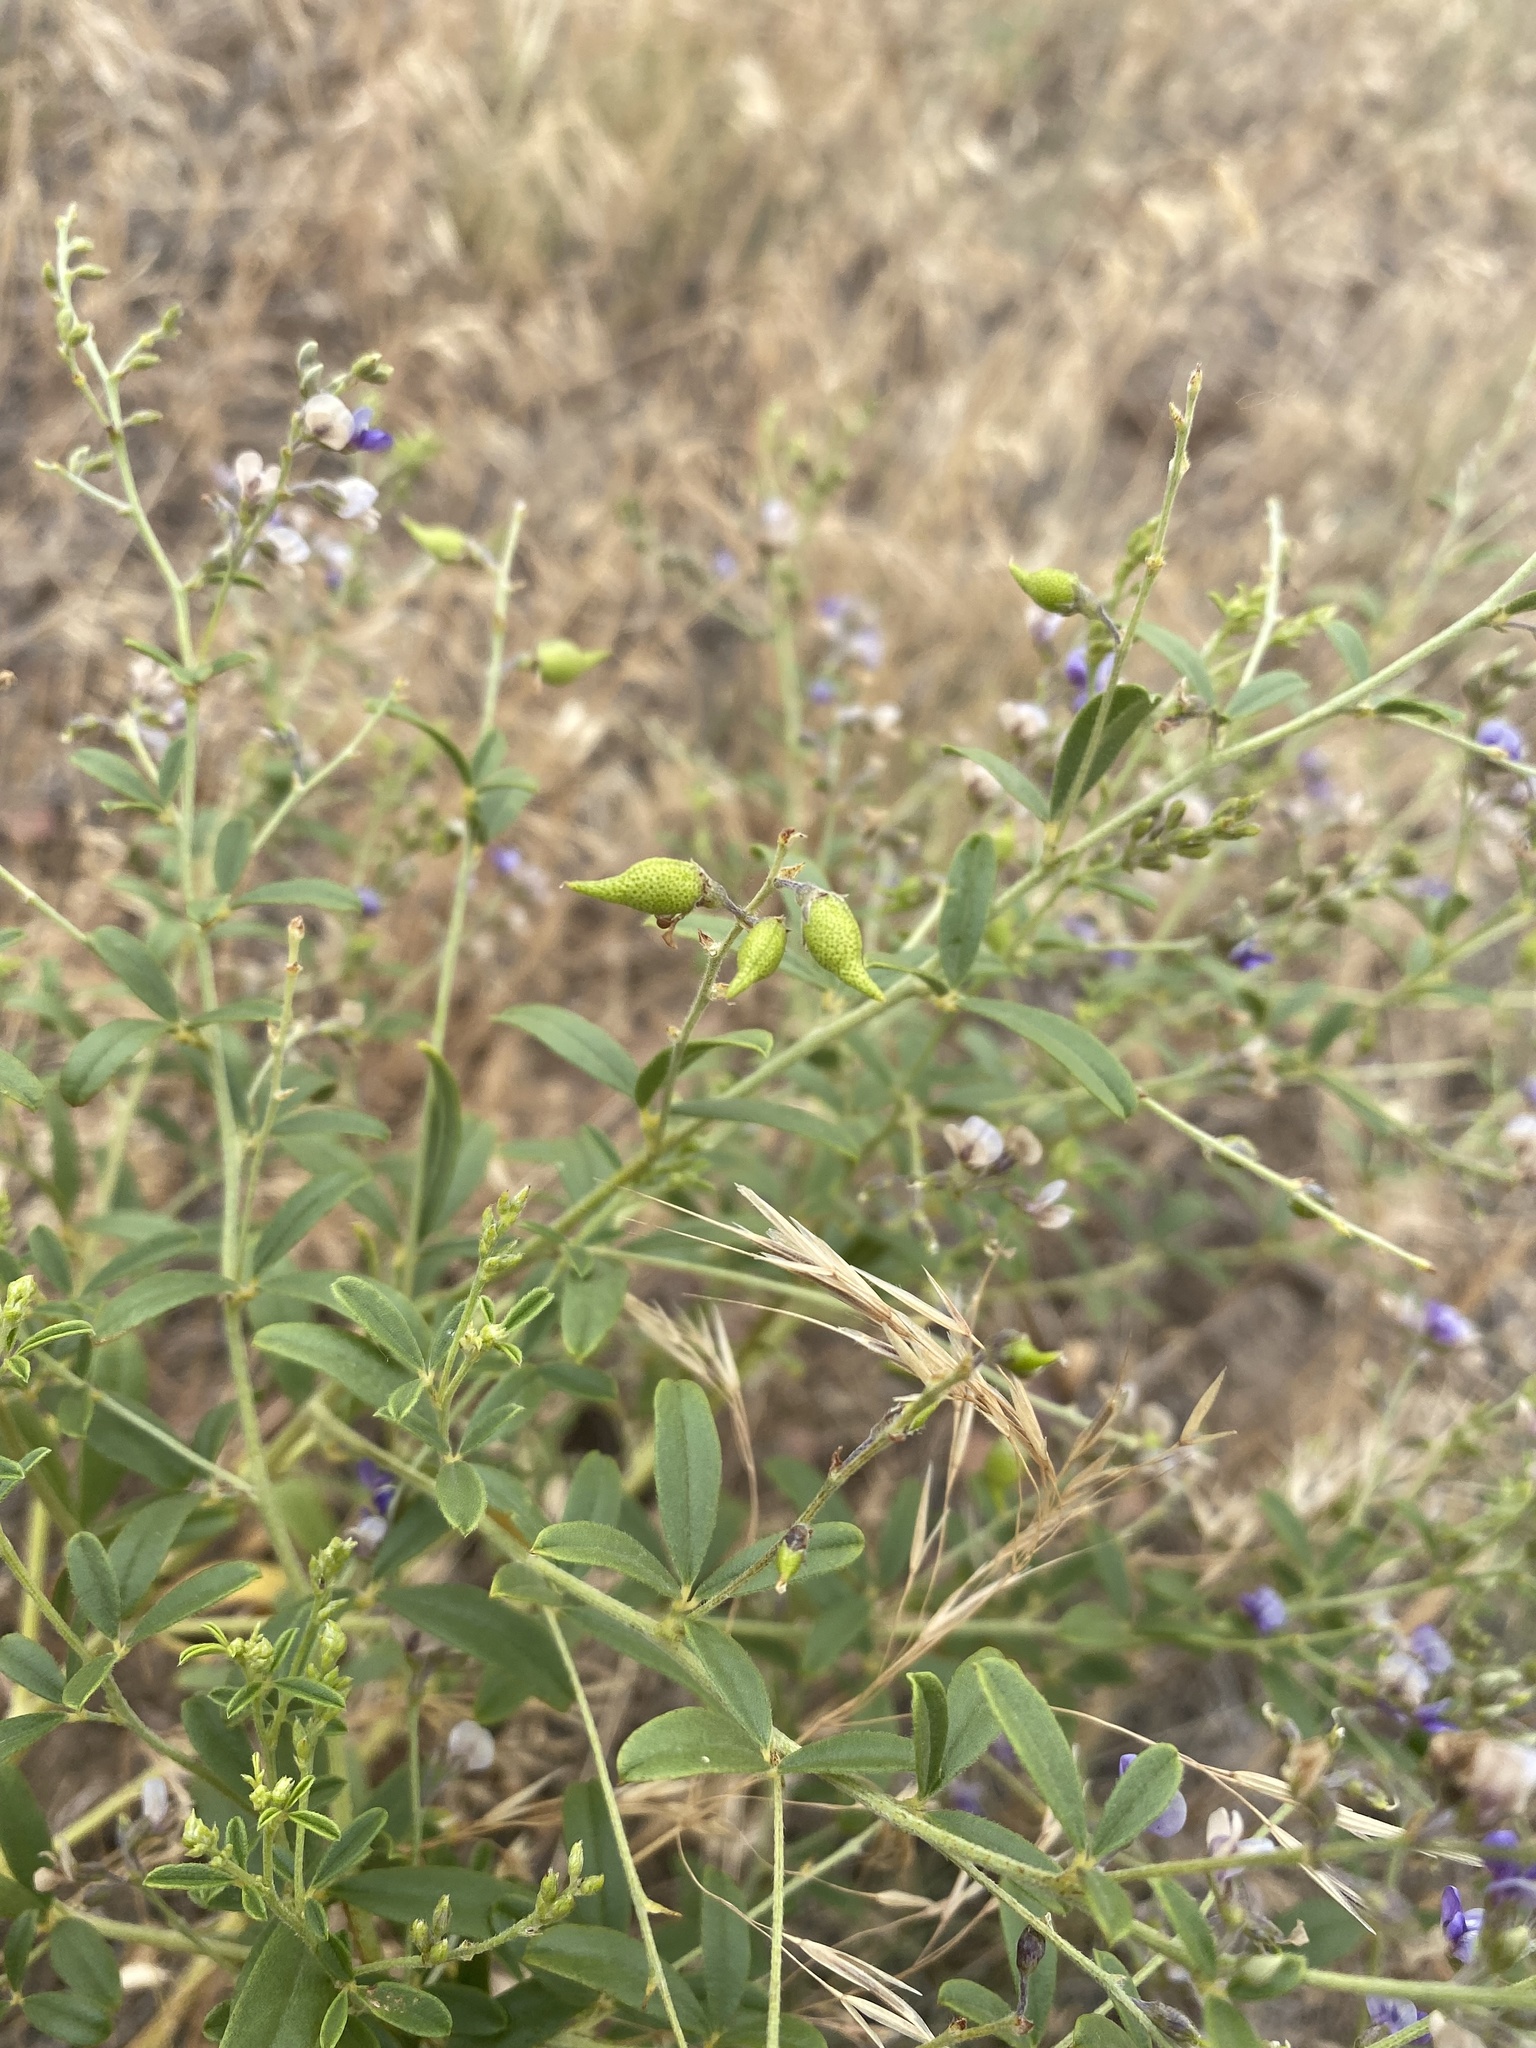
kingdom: Plantae
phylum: Tracheophyta
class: Magnoliopsida
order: Fabales
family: Fabaceae
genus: Pediomelum
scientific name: Pediomelum tenuiflorum
